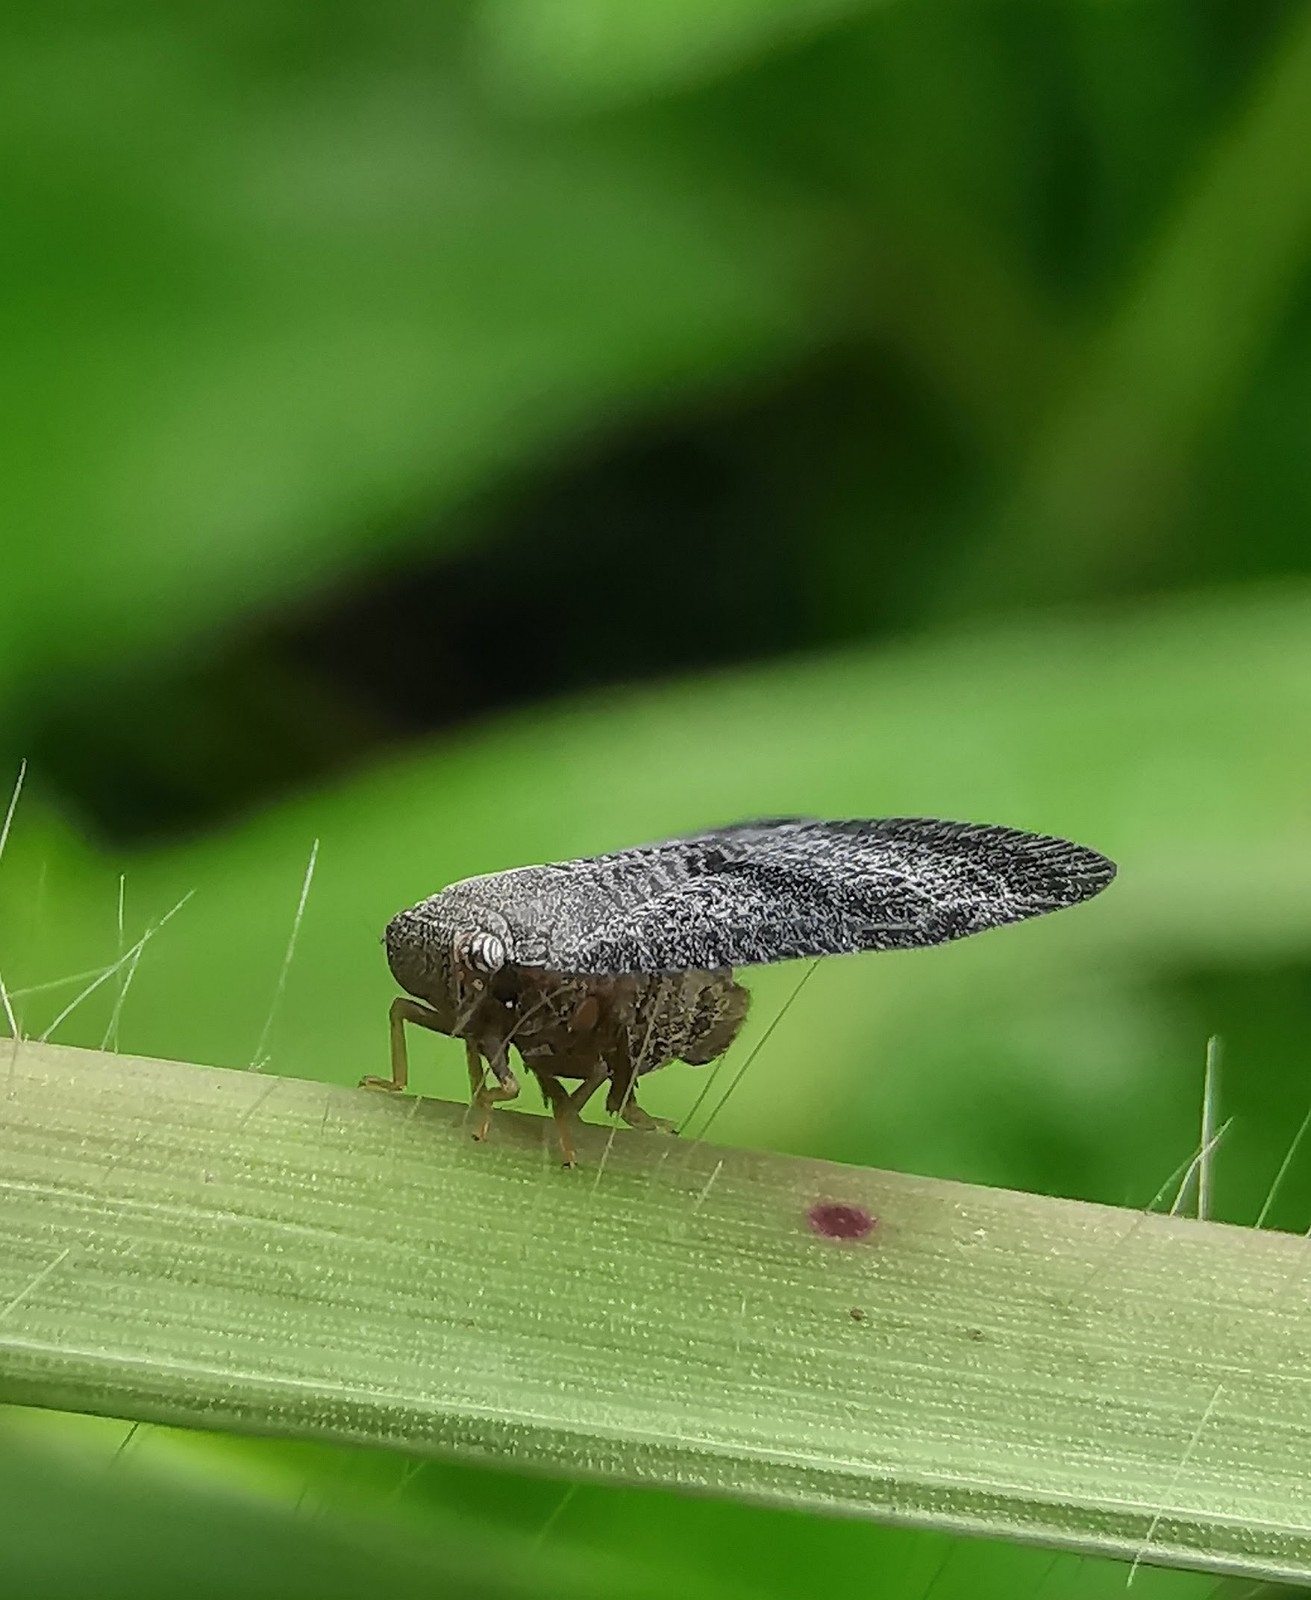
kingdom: Animalia
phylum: Arthropoda
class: Insecta
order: Hemiptera
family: Ricaniidae
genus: Ricania
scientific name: Ricania taeniata
